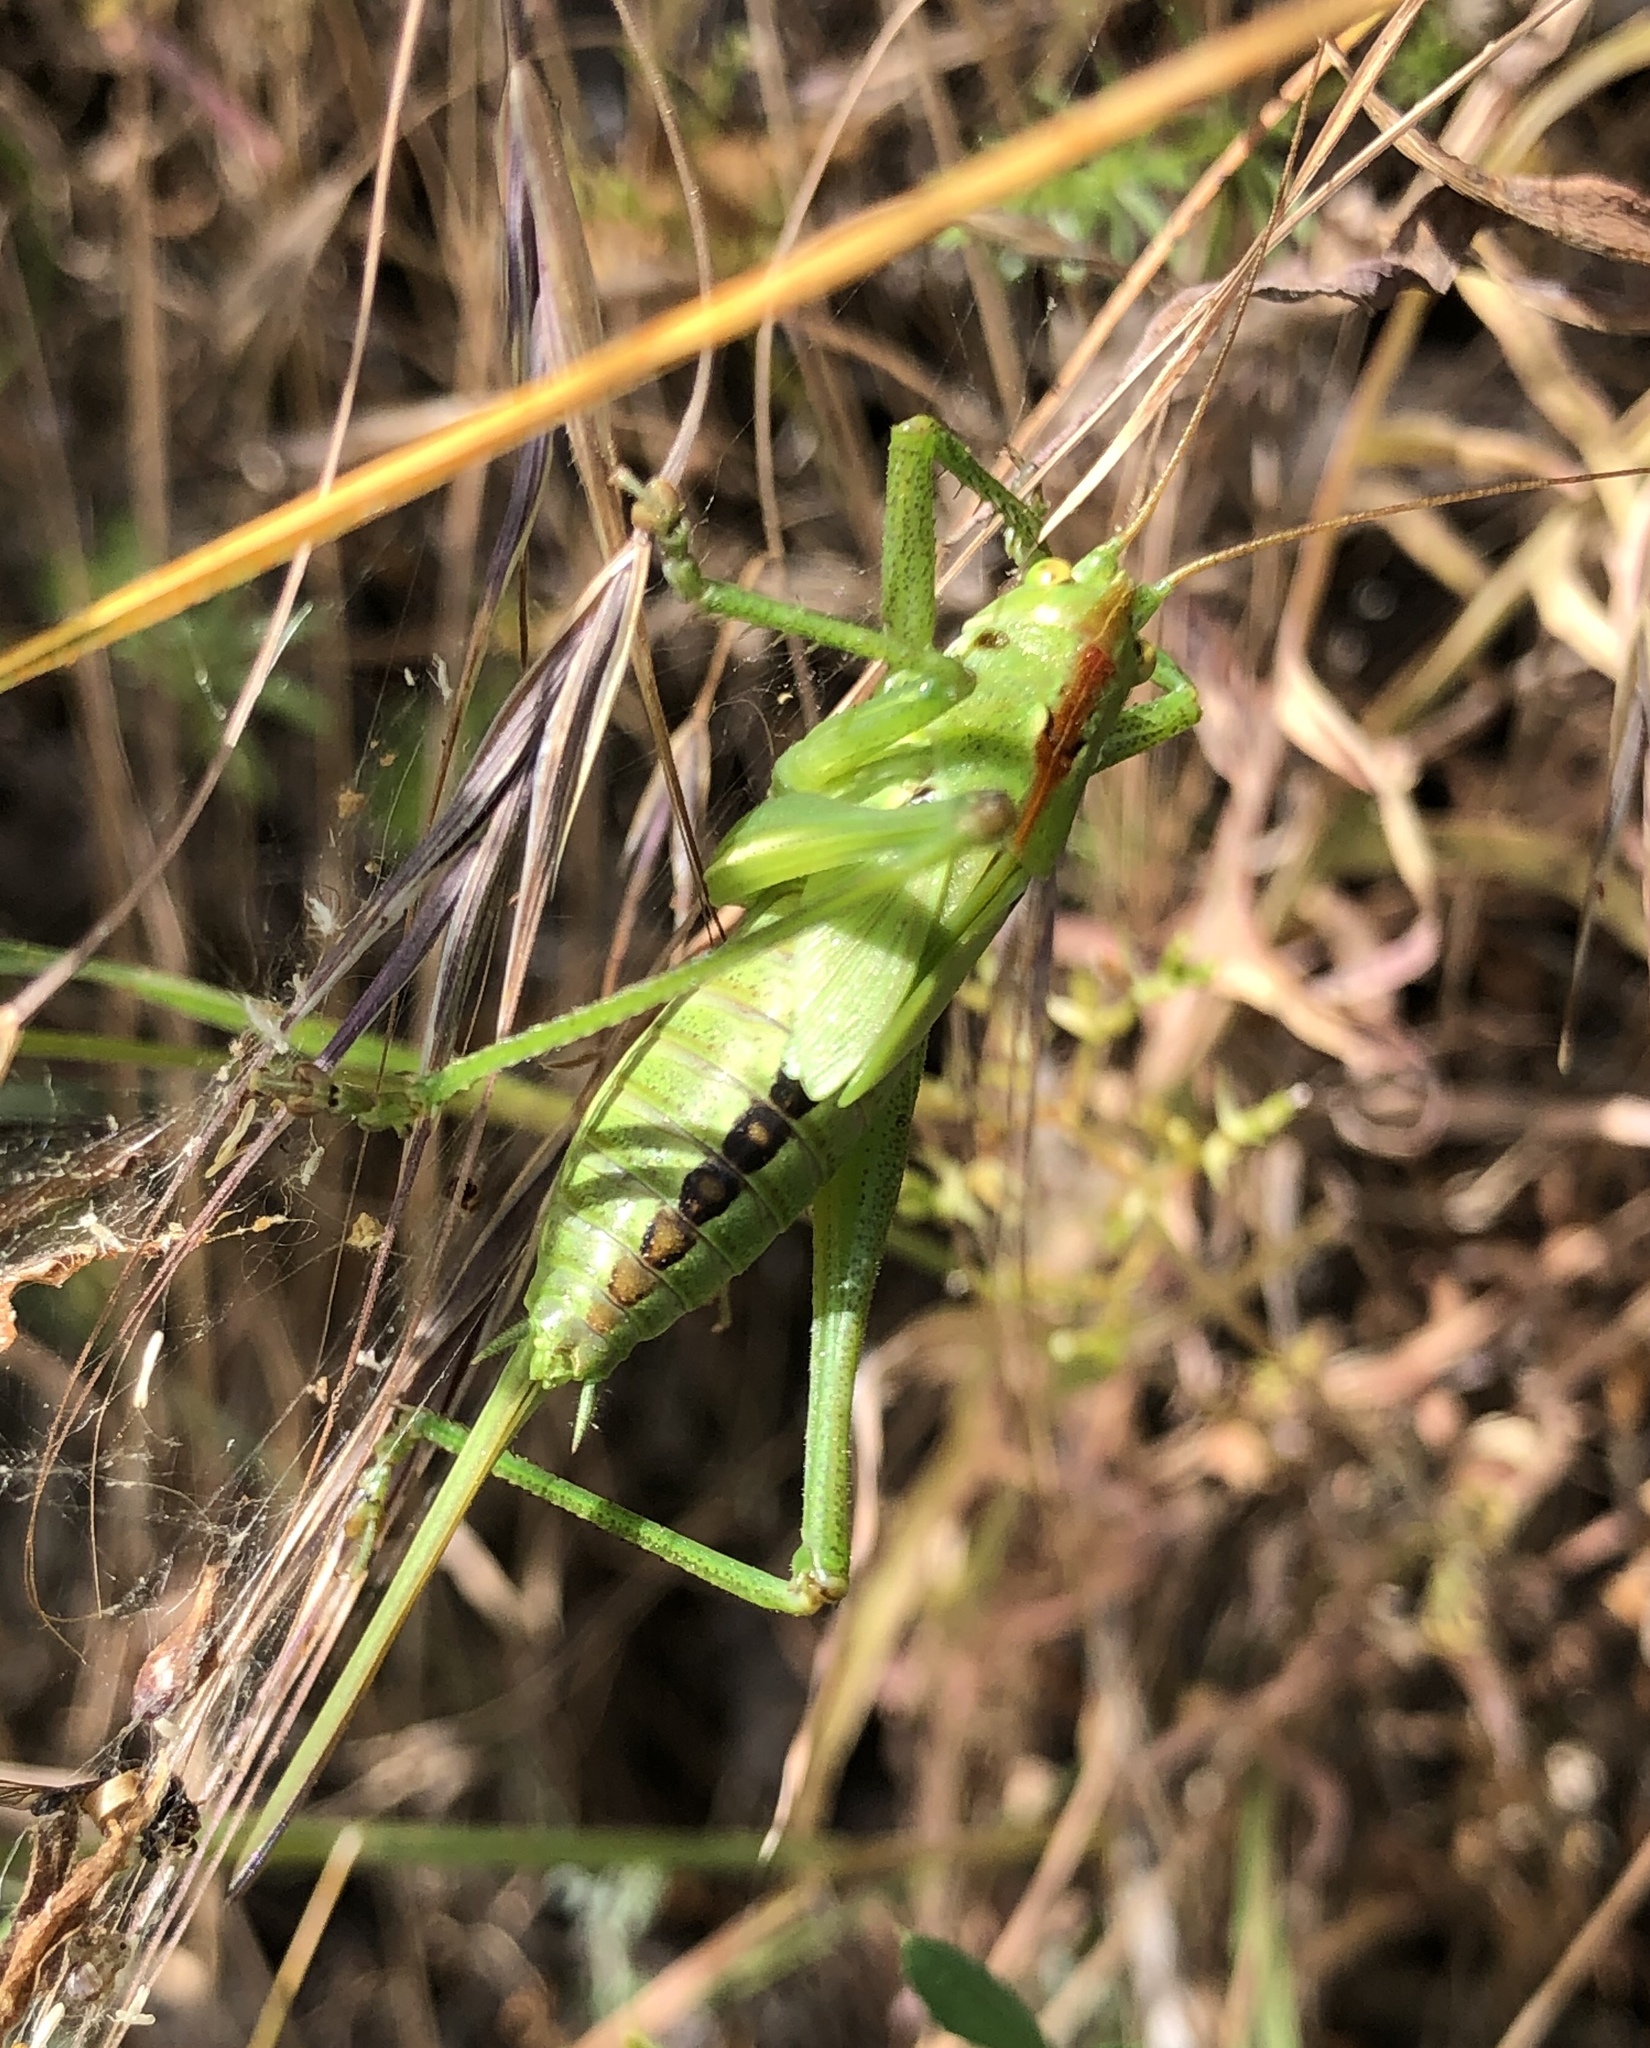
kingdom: Animalia
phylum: Arthropoda
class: Insecta
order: Orthoptera
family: Tettigoniidae
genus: Tettigonia
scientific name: Tettigonia viridissima
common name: Great green bush-cricket
